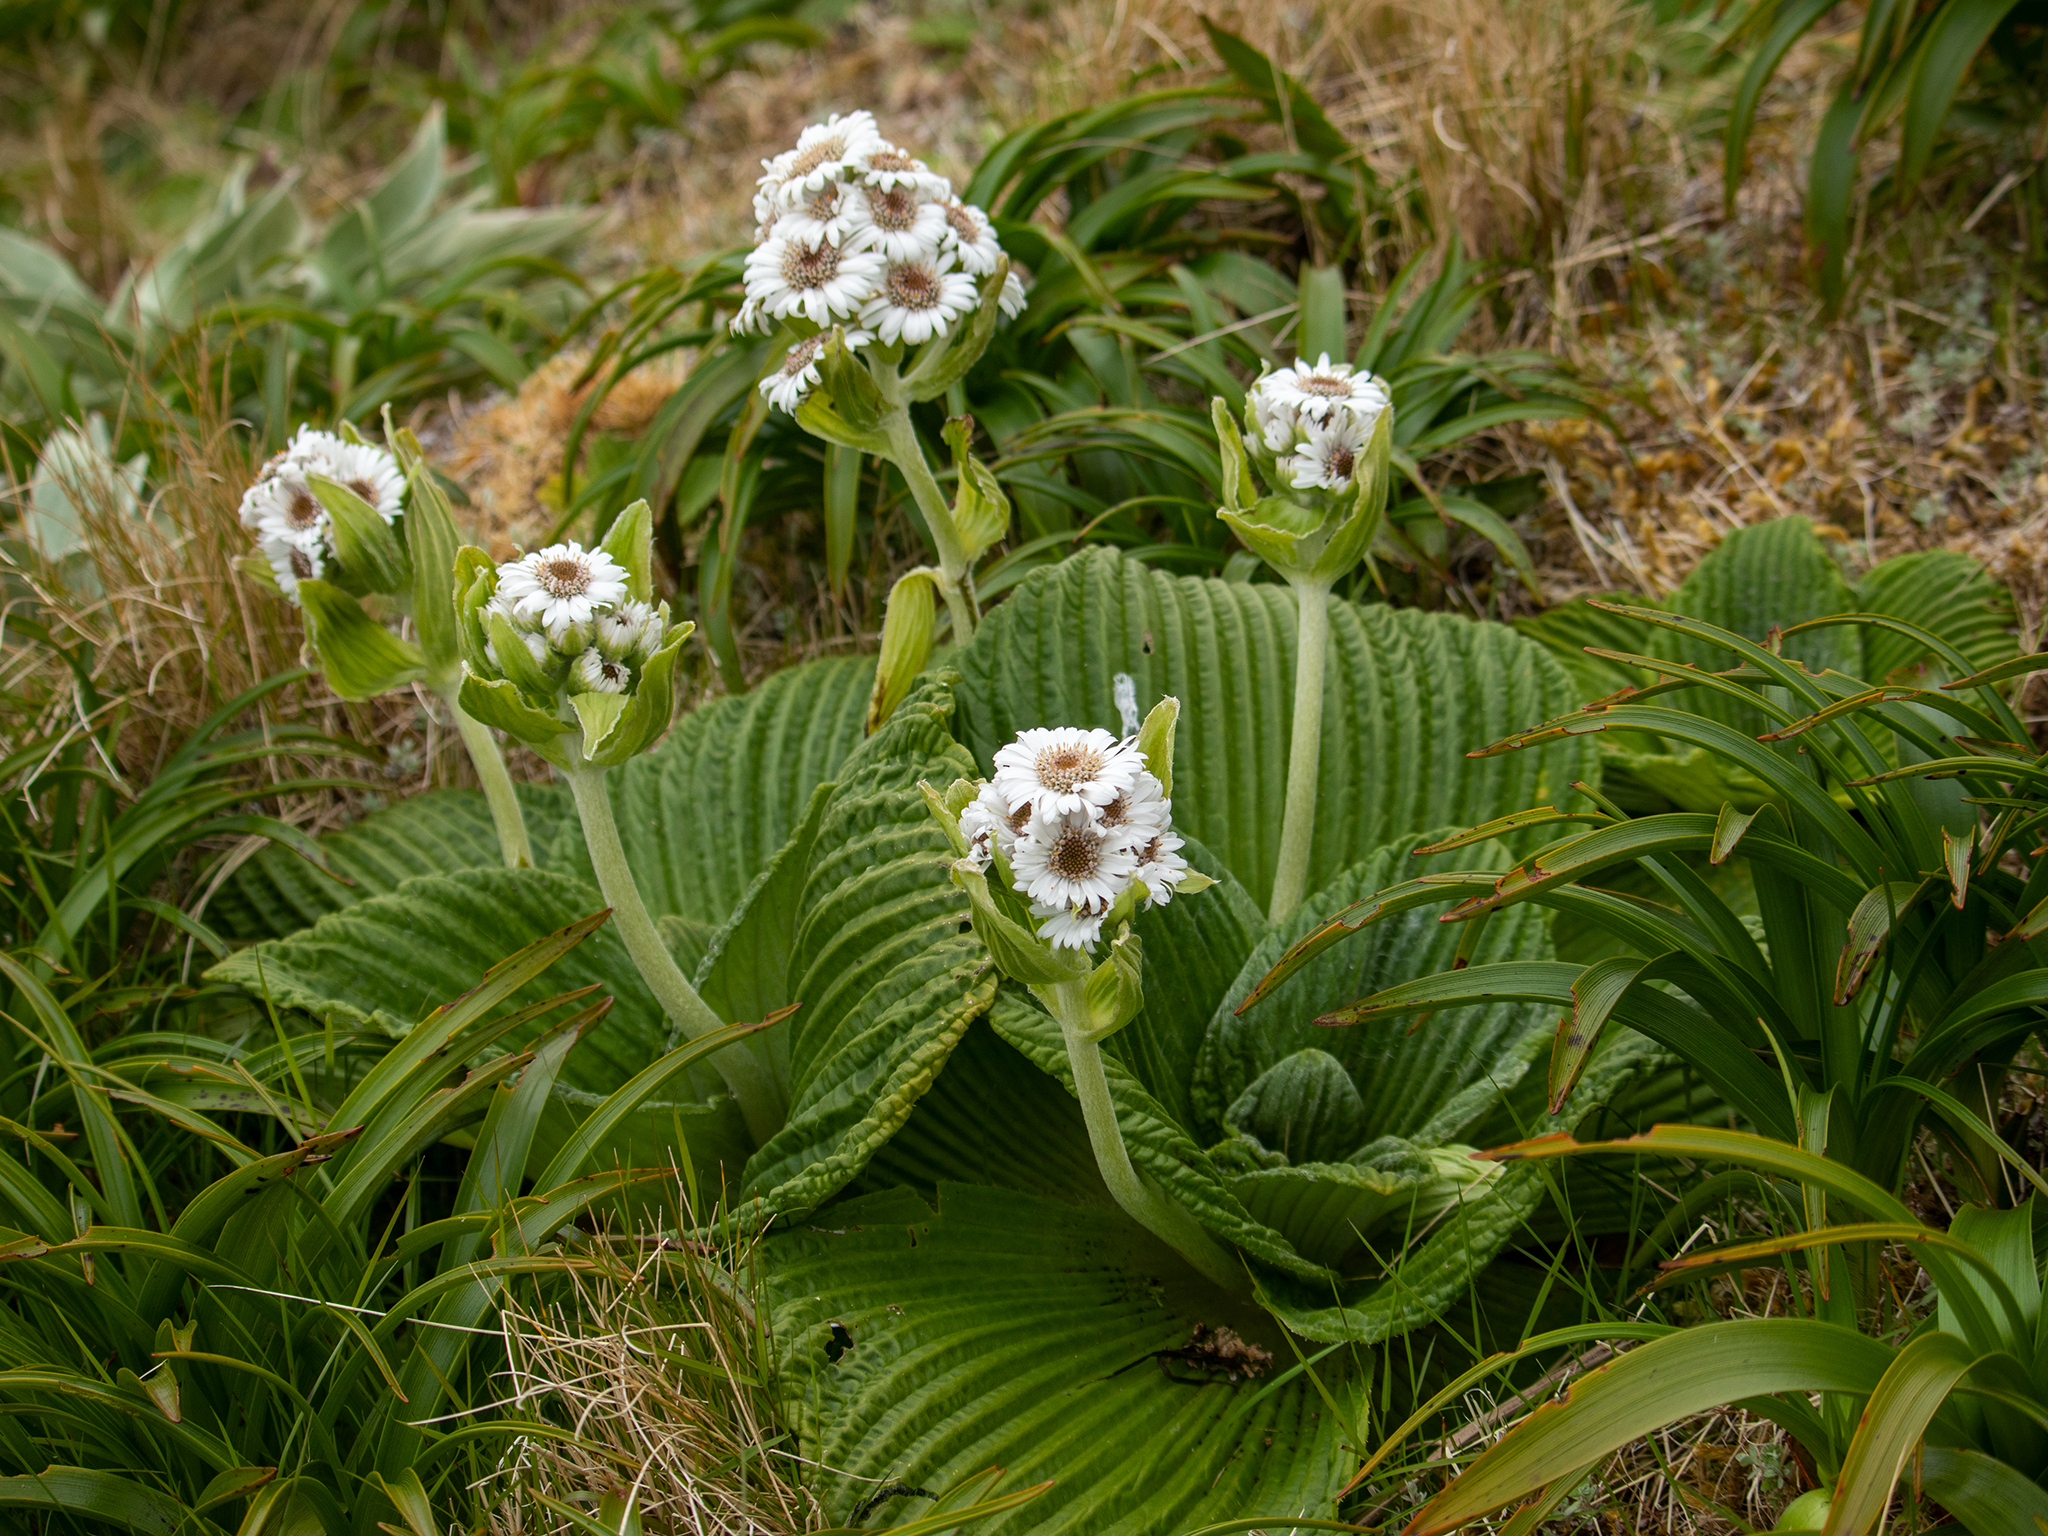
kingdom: Plantae
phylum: Tracheophyta
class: Magnoliopsida
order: Asterales
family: Asteraceae
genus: Pleurophyllum
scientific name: Pleurophyllum speciosum
